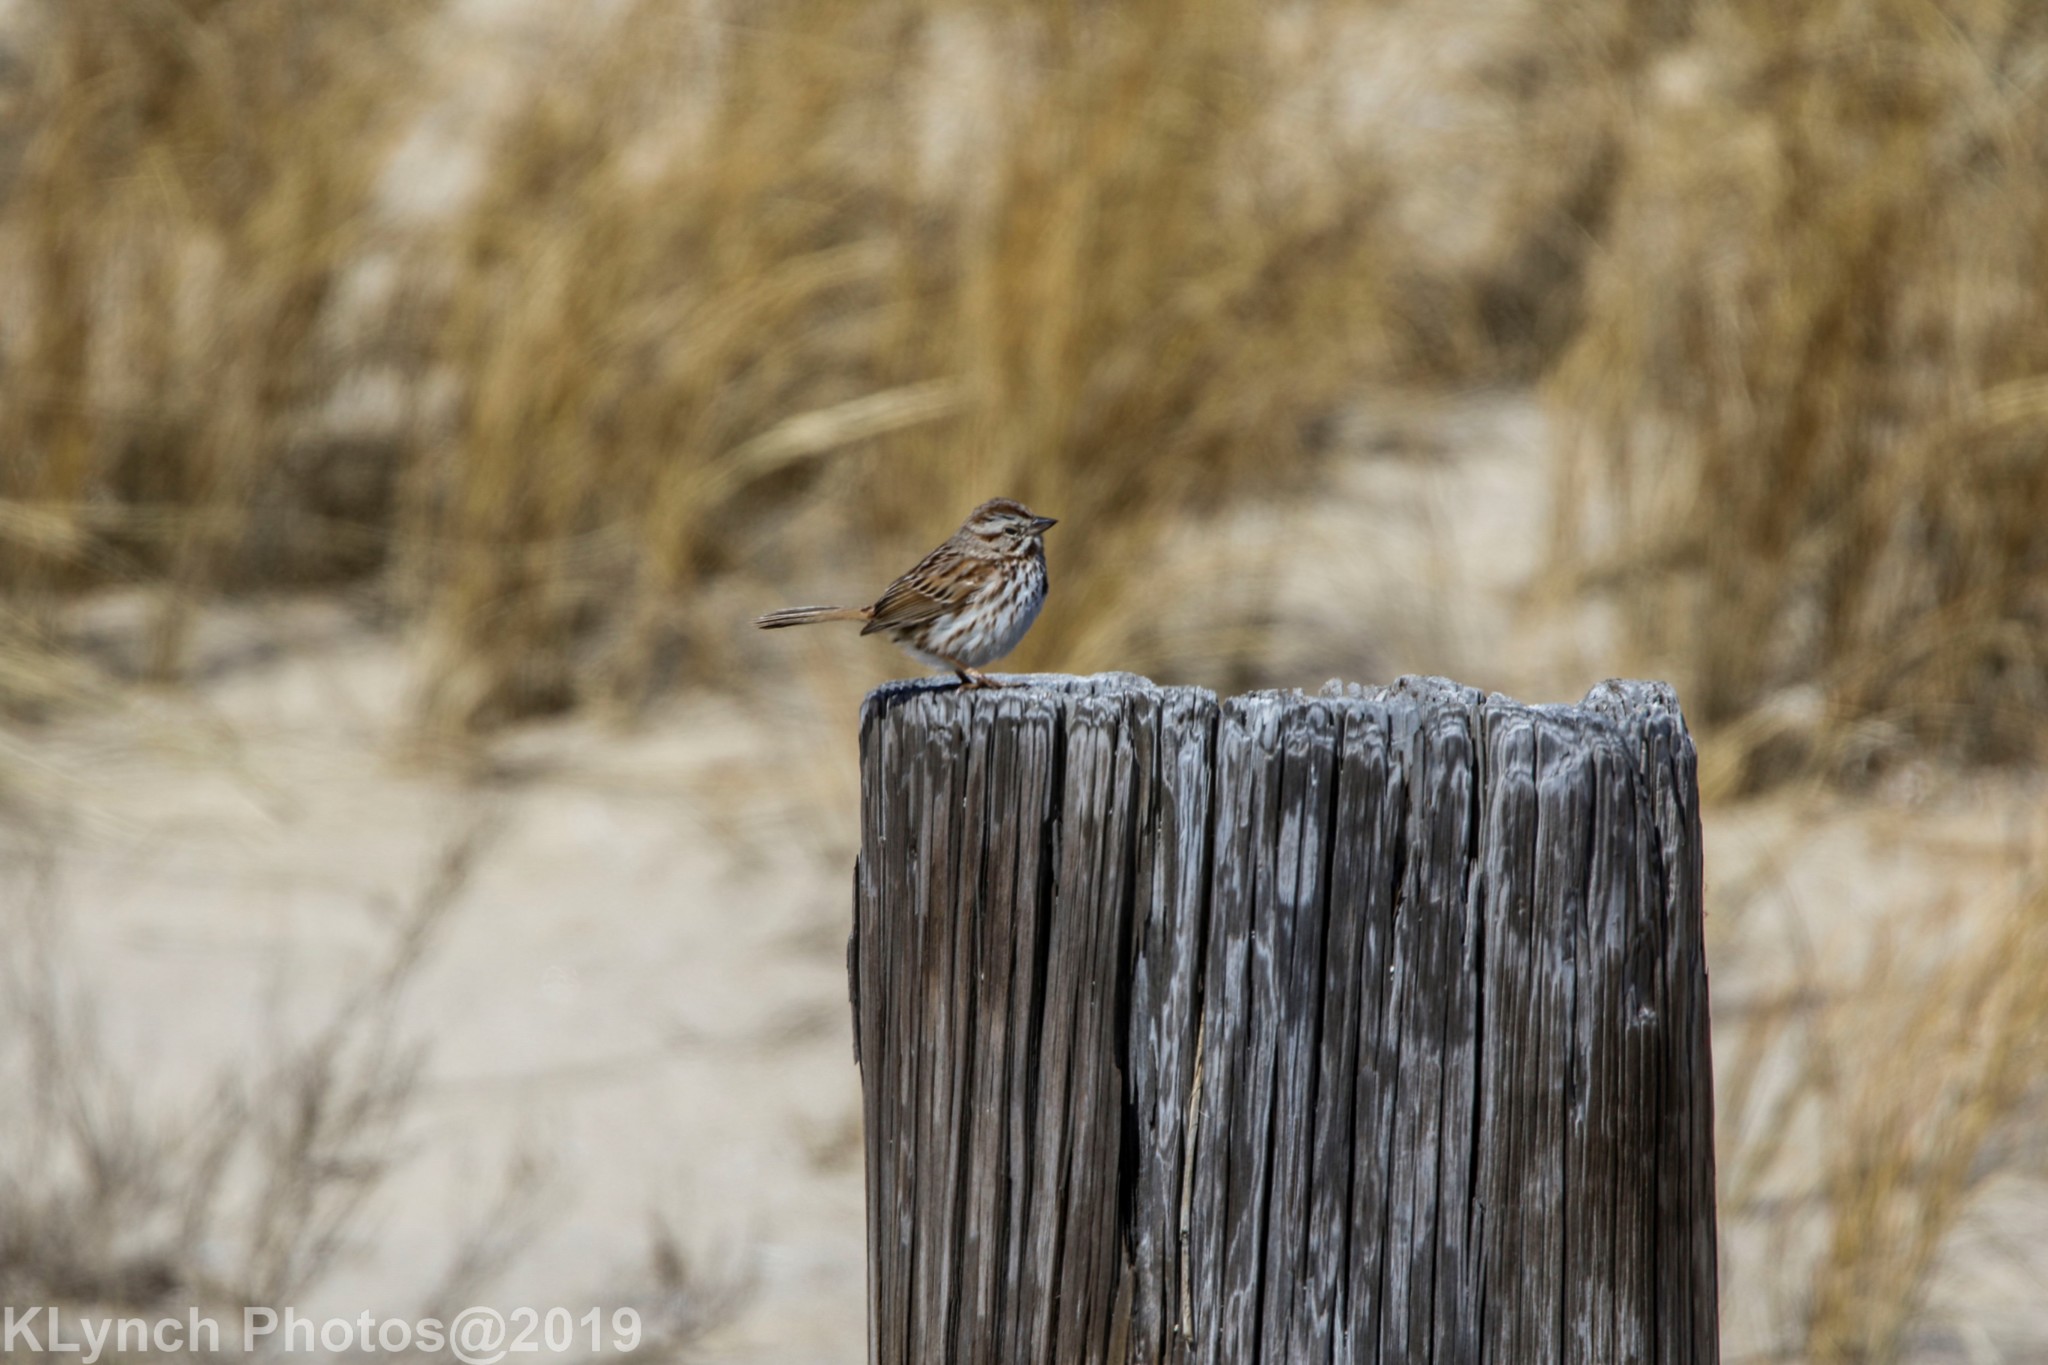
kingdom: Animalia
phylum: Chordata
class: Aves
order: Passeriformes
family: Passerellidae
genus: Melospiza
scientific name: Melospiza melodia
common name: Song sparrow
